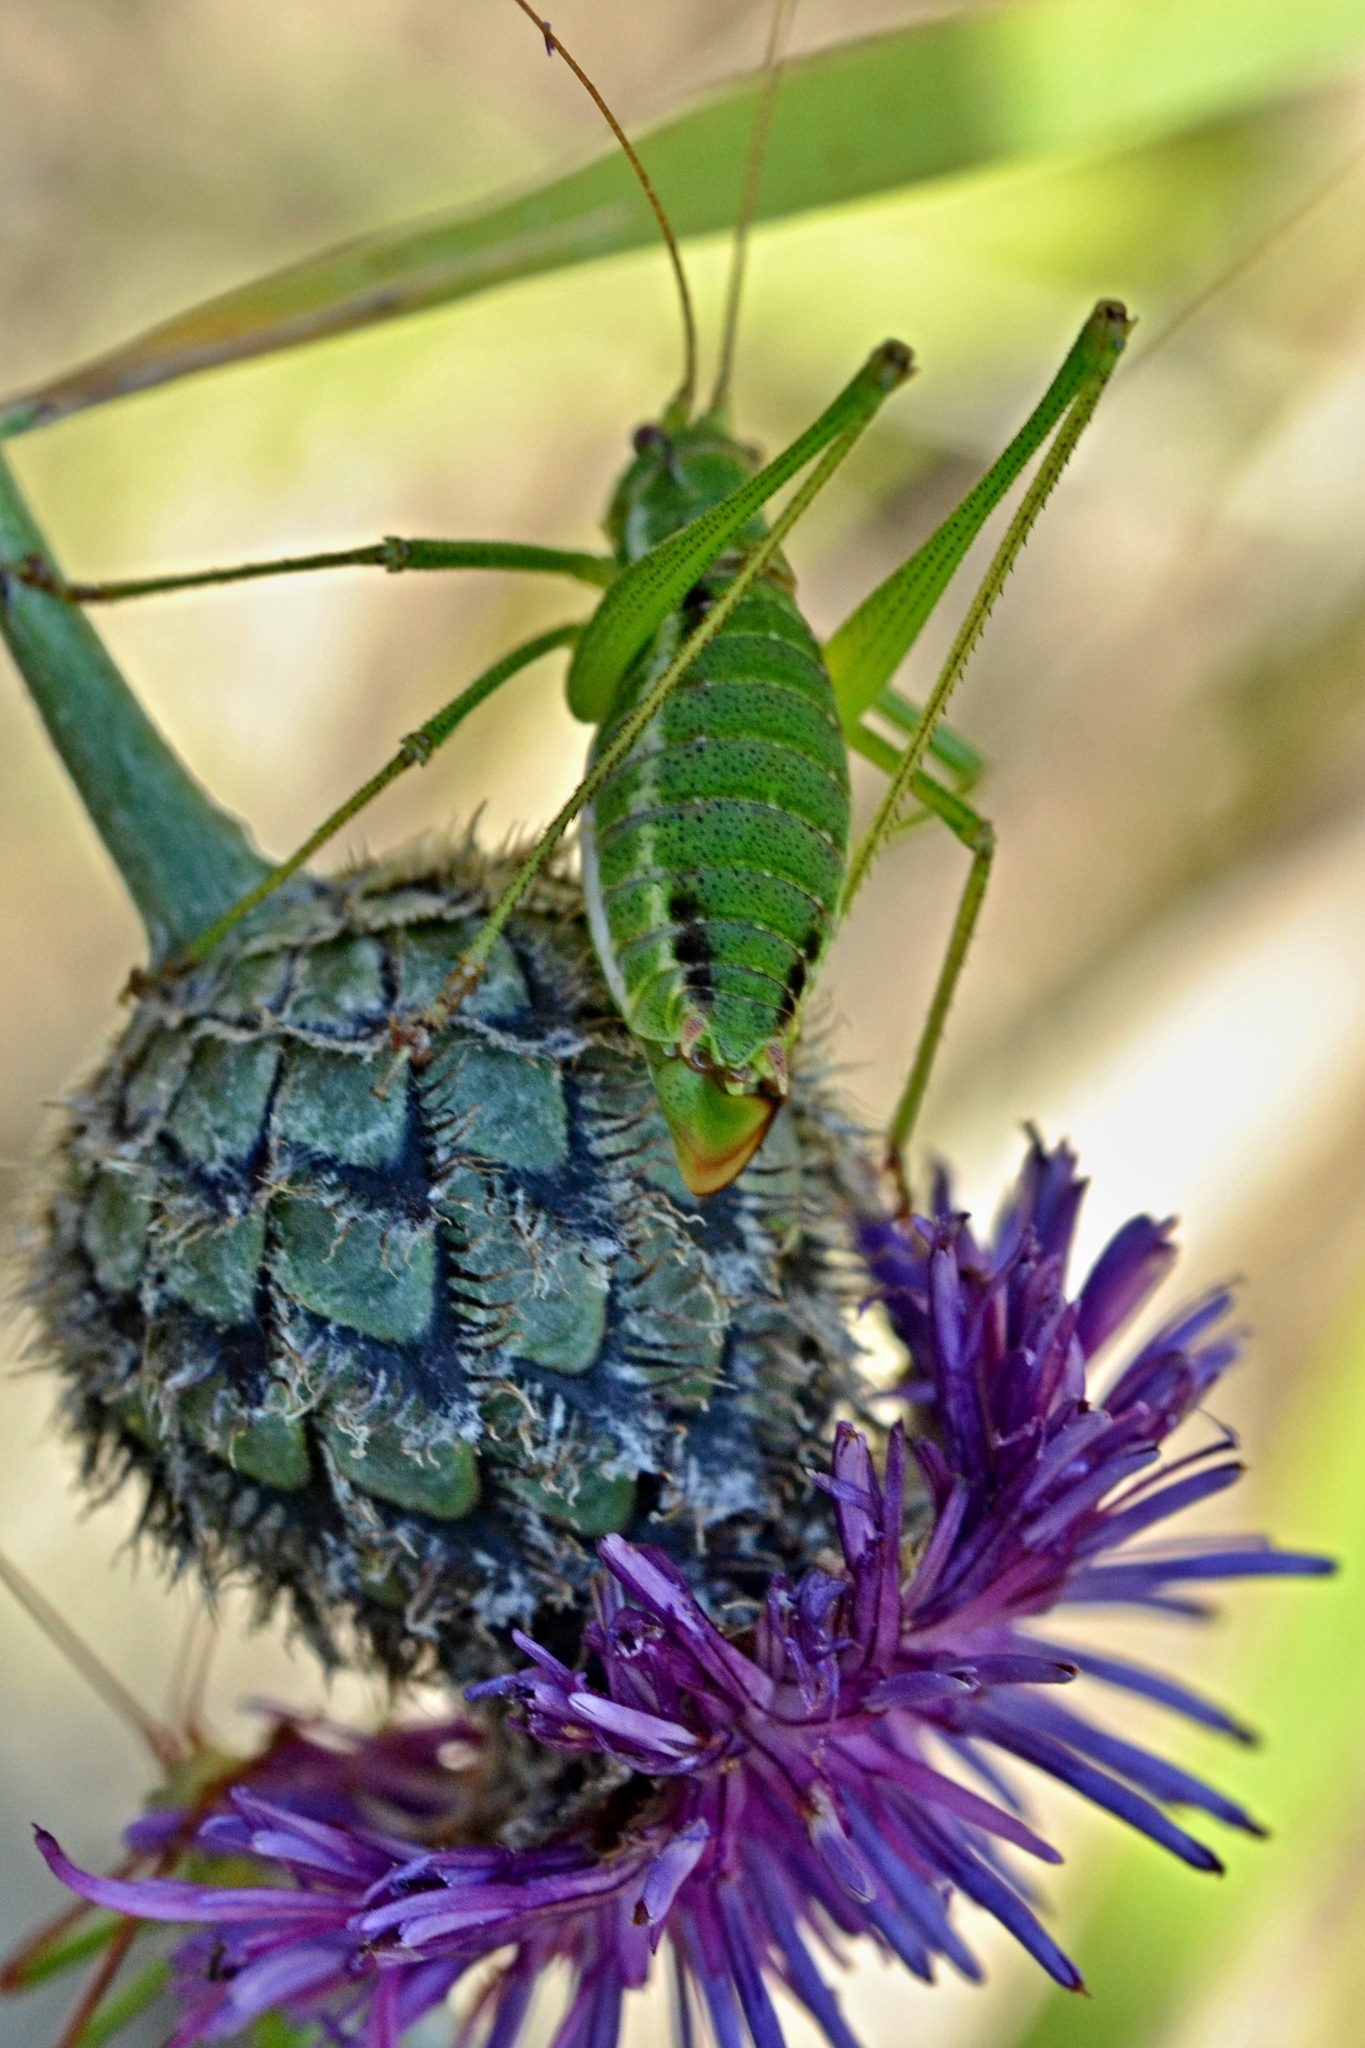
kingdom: Animalia
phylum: Arthropoda
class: Insecta
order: Orthoptera
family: Tettigoniidae
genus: Leptophyes
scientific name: Leptophyes albovittata
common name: Striped bush-cricket
